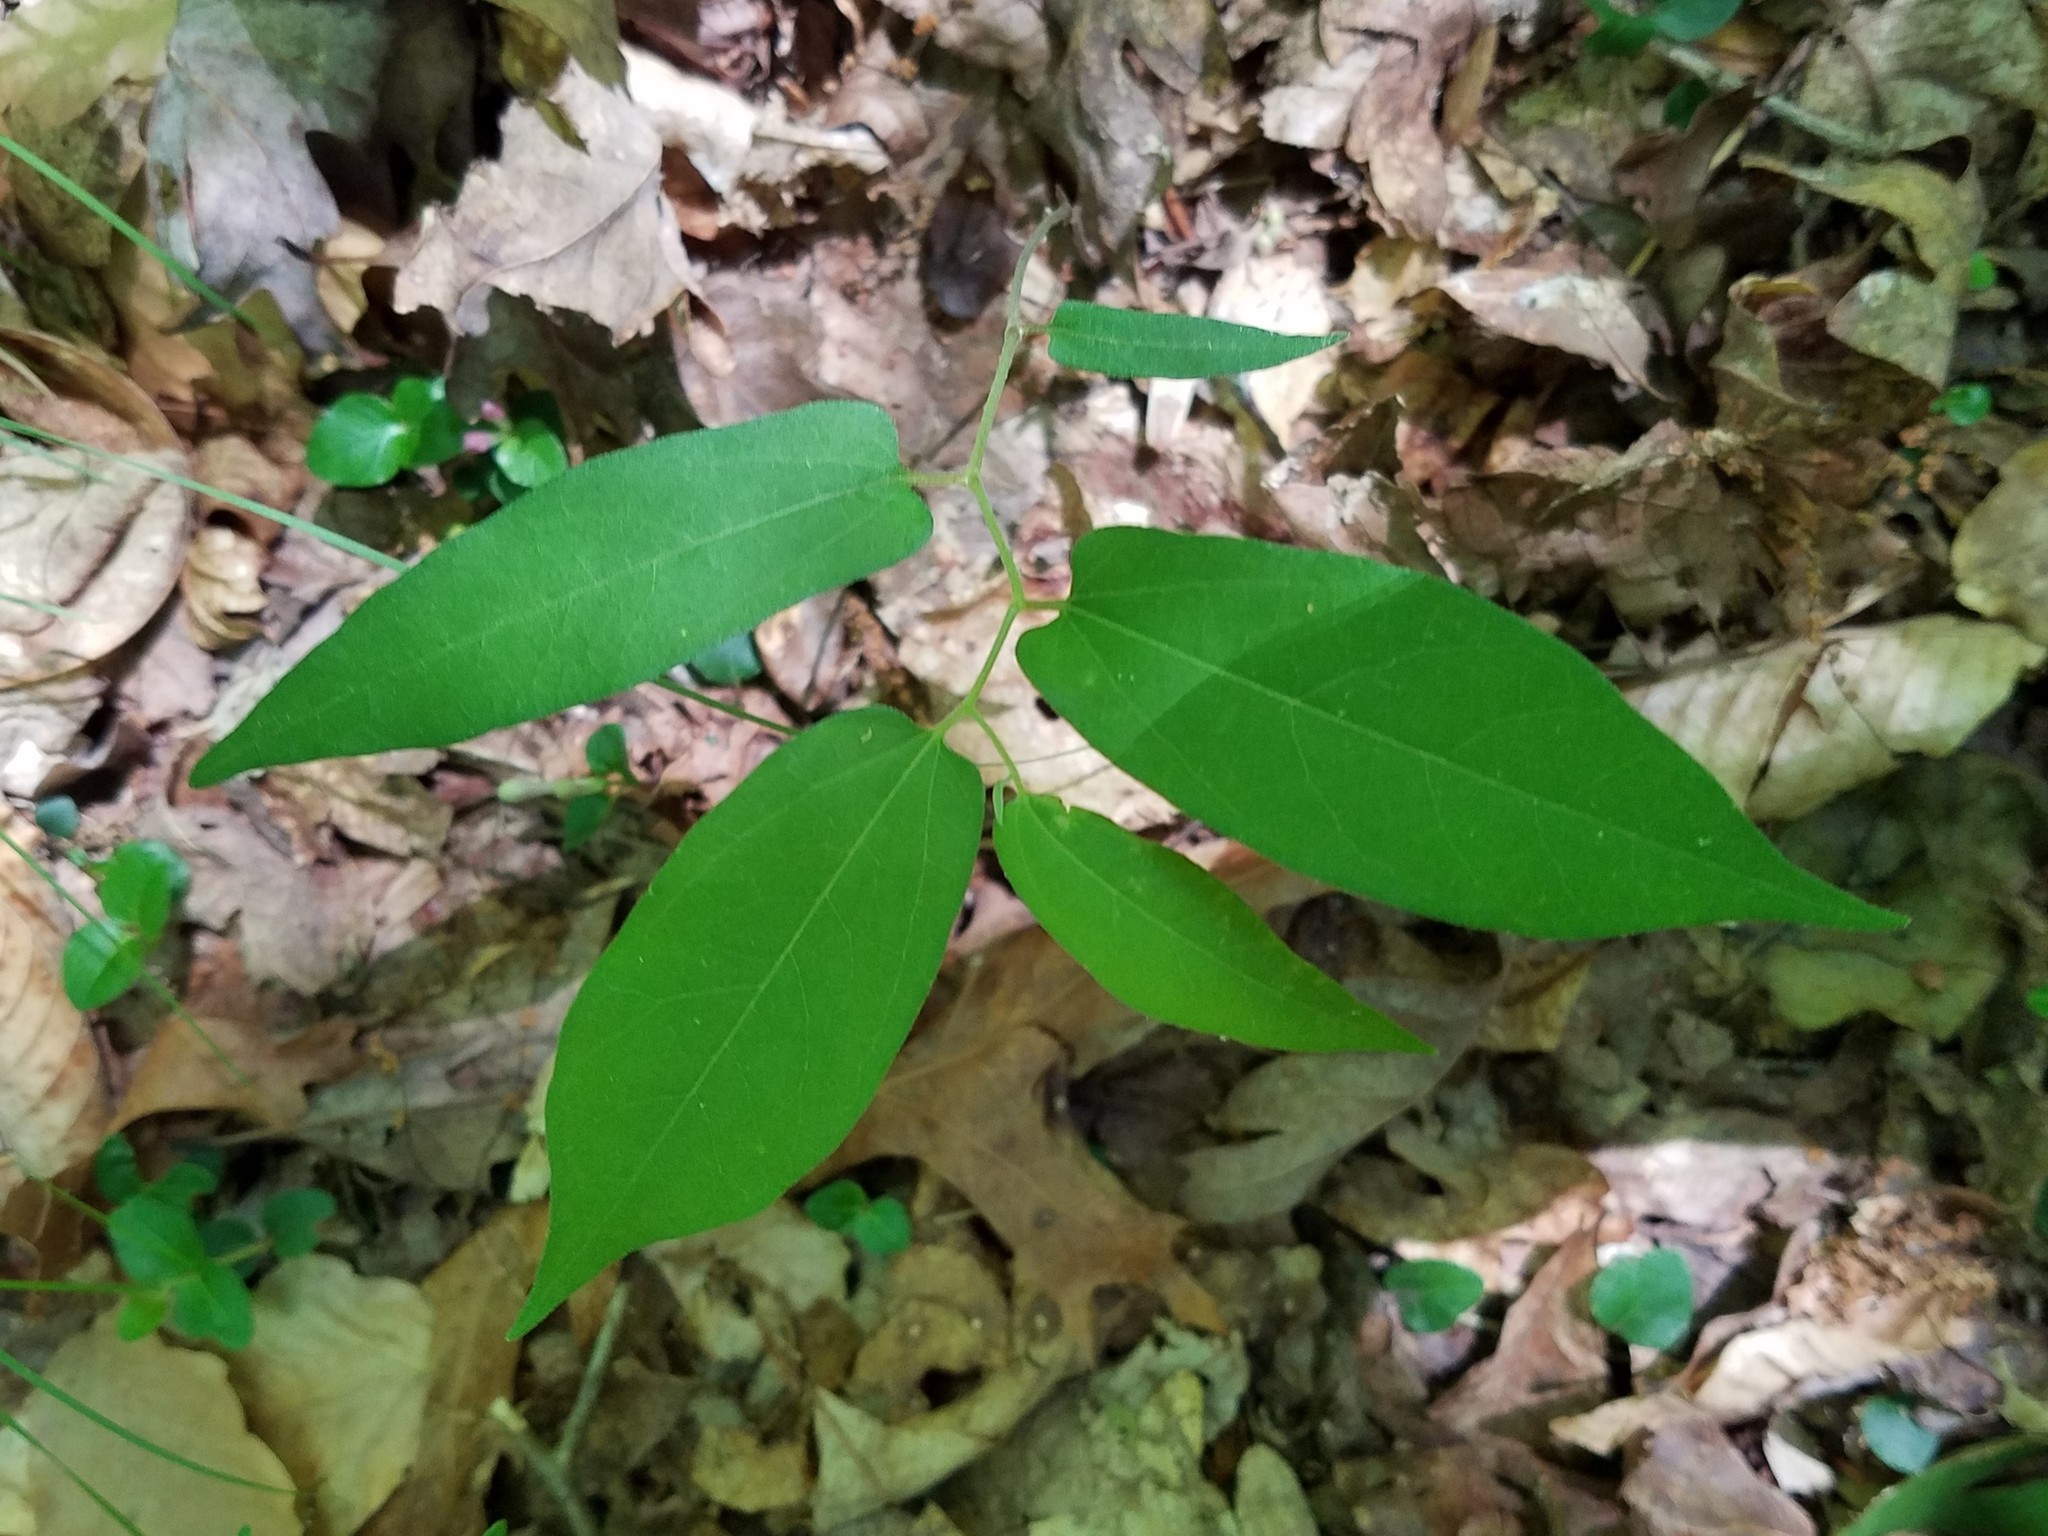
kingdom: Plantae
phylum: Tracheophyta
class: Magnoliopsida
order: Piperales
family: Aristolochiaceae
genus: Endodeca
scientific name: Endodeca serpentaria
